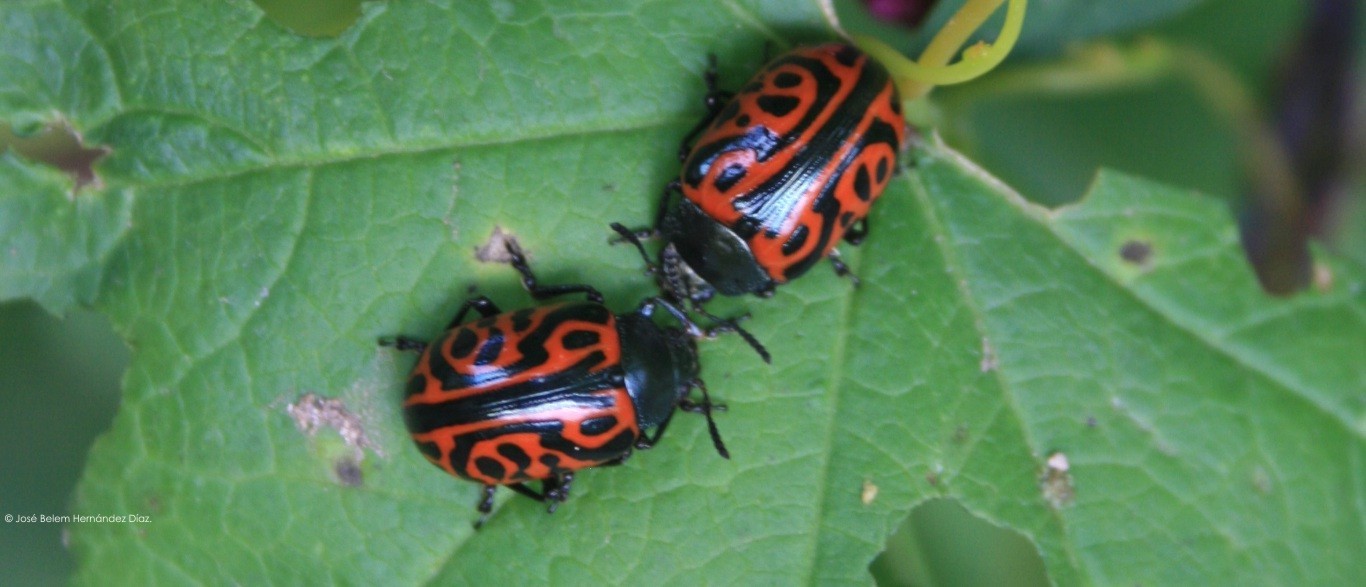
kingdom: Animalia
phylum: Arthropoda
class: Insecta
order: Coleoptera
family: Chrysomelidae
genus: Calligrapha
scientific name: Calligrapha mexicana
